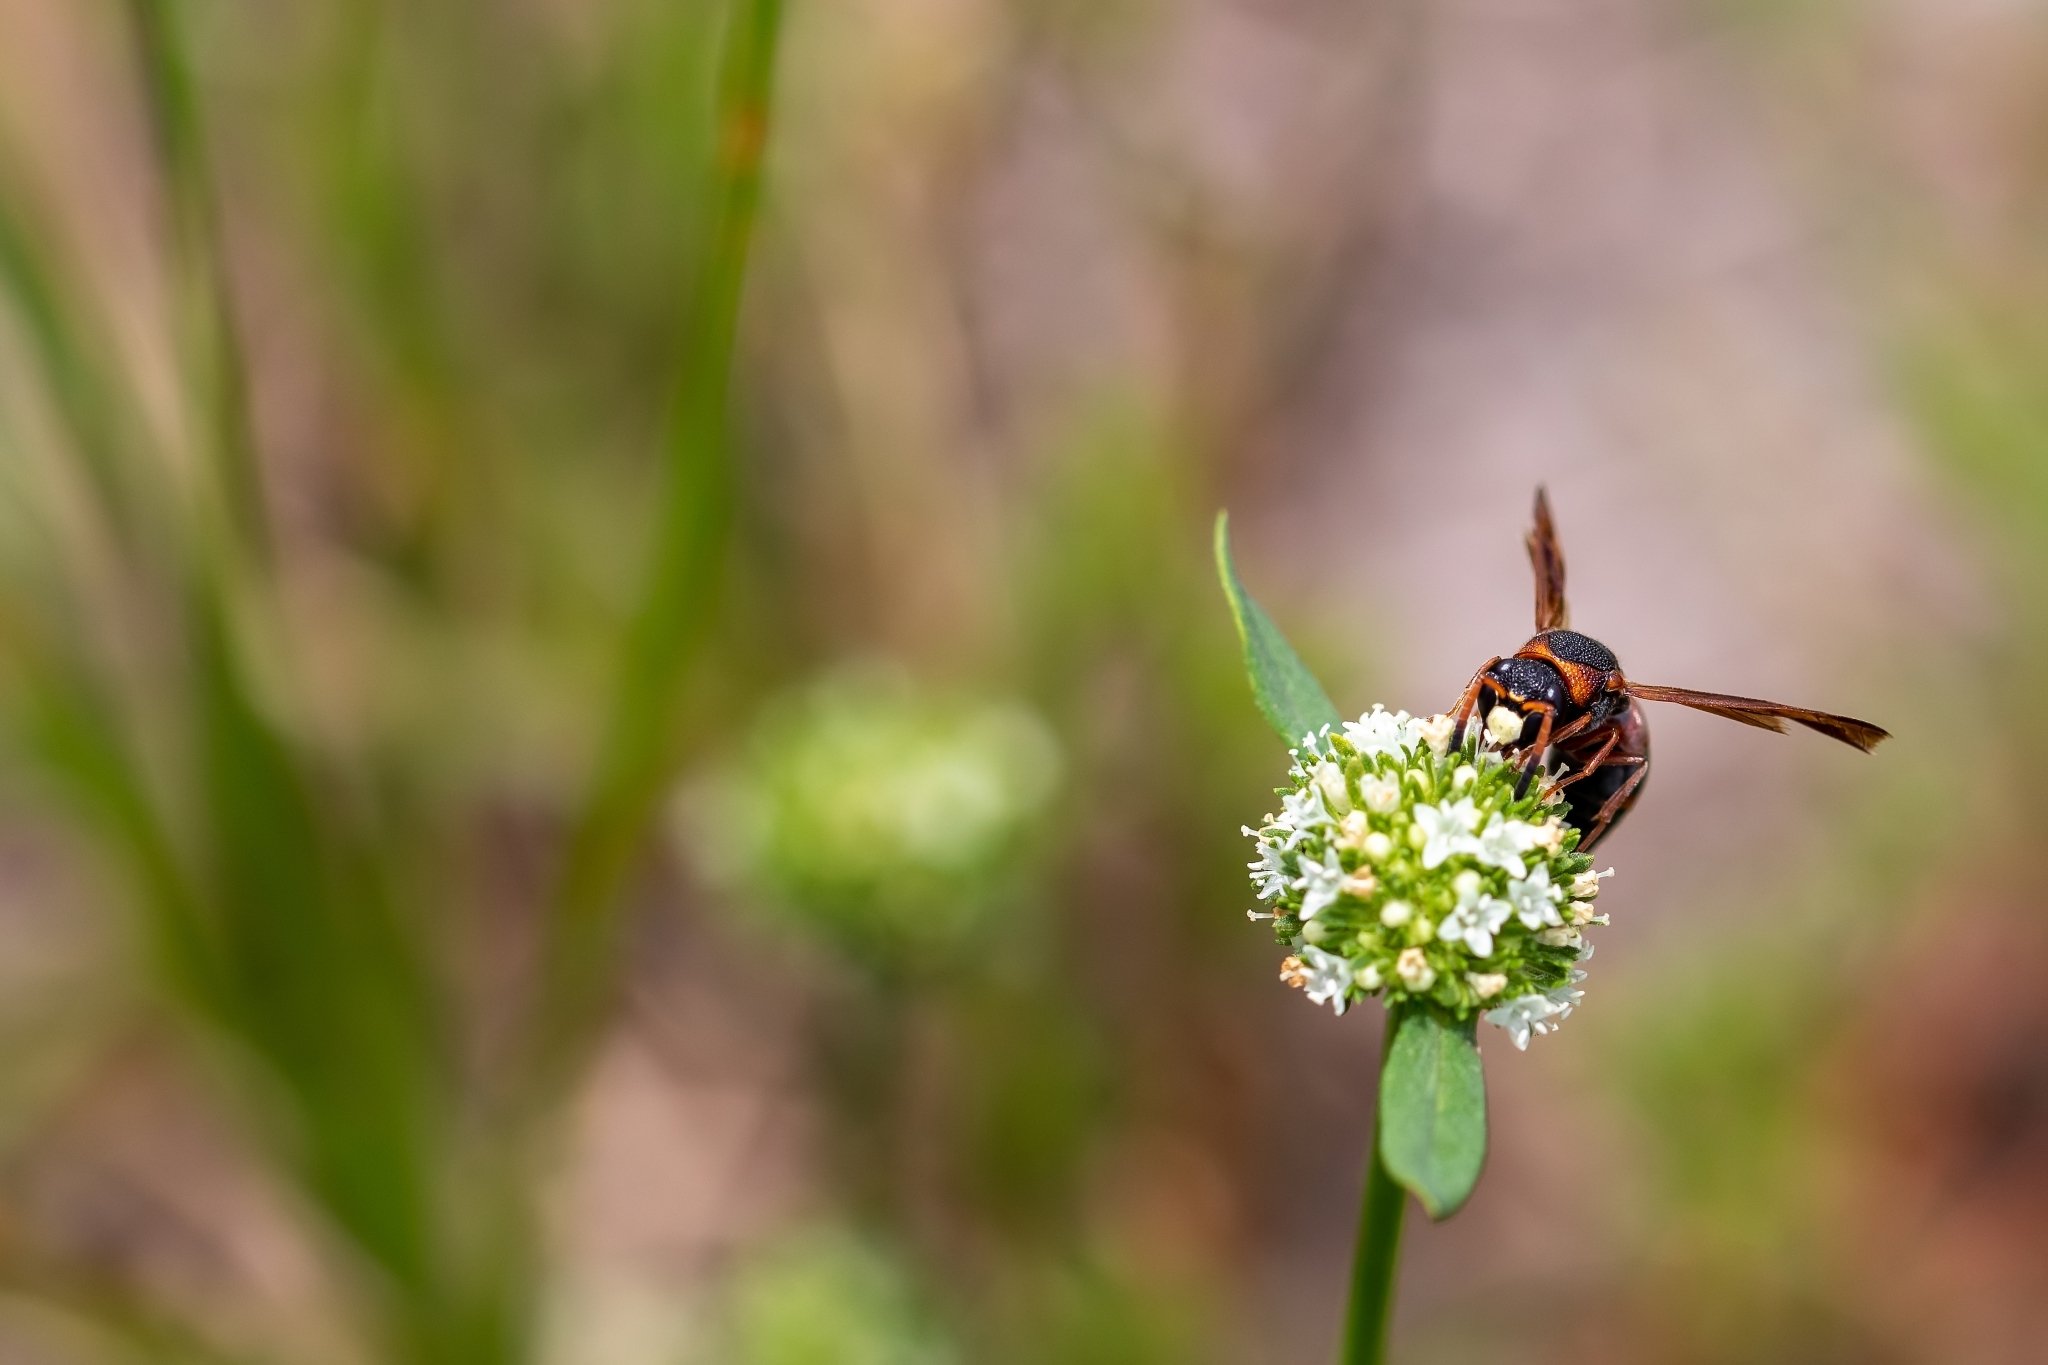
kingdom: Animalia
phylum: Arthropoda
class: Insecta
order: Hymenoptera
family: Eumenidae
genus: Pachodynerus
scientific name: Pachodynerus erynnis
